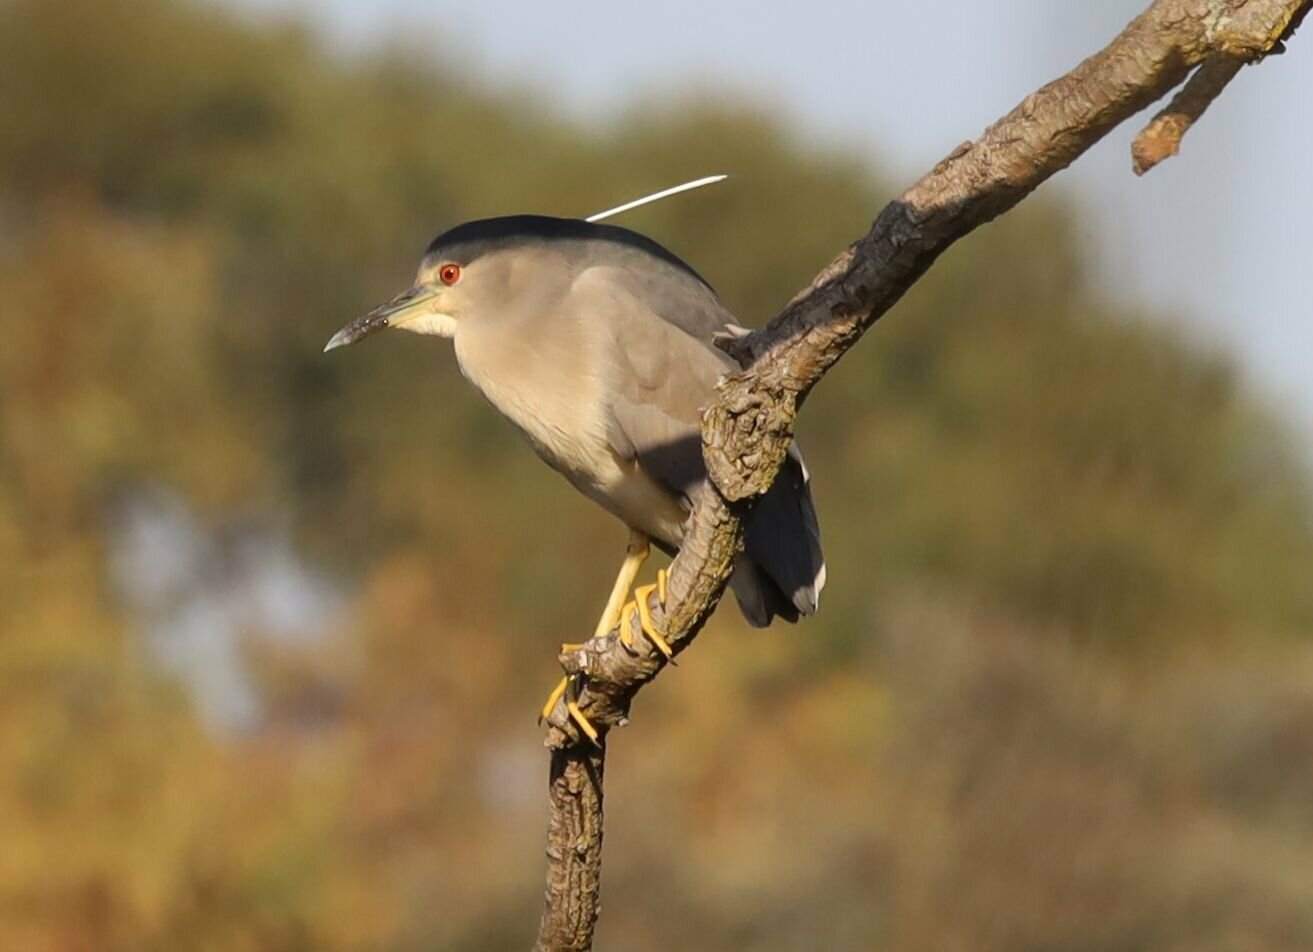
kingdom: Animalia
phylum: Chordata
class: Aves
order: Pelecaniformes
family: Ardeidae
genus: Nycticorax
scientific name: Nycticorax nycticorax
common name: Black-crowned night heron
